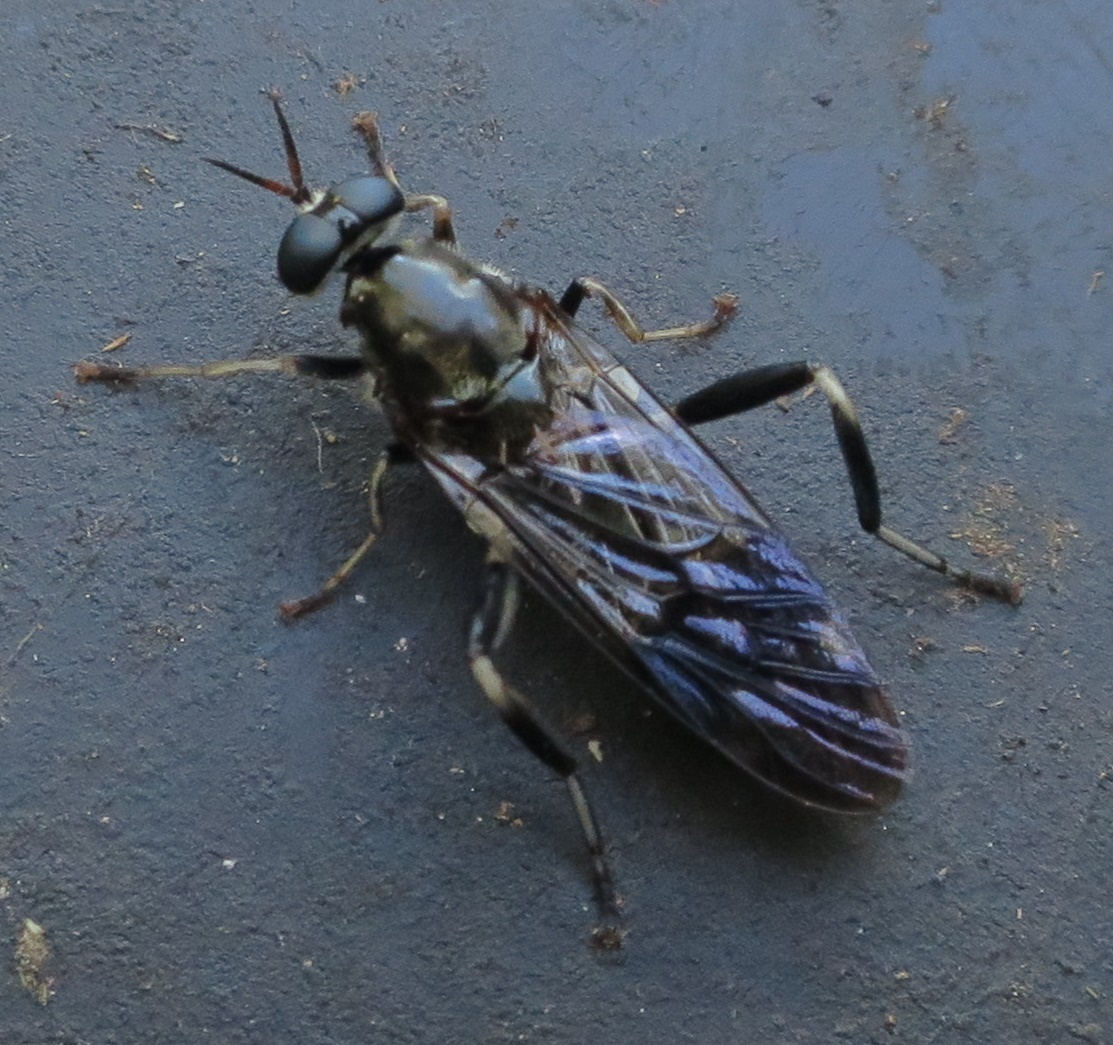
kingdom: Animalia
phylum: Arthropoda
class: Insecta
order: Diptera
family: Stratiomyidae
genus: Exaireta
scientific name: Exaireta spinigera
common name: Blue soldier fly
